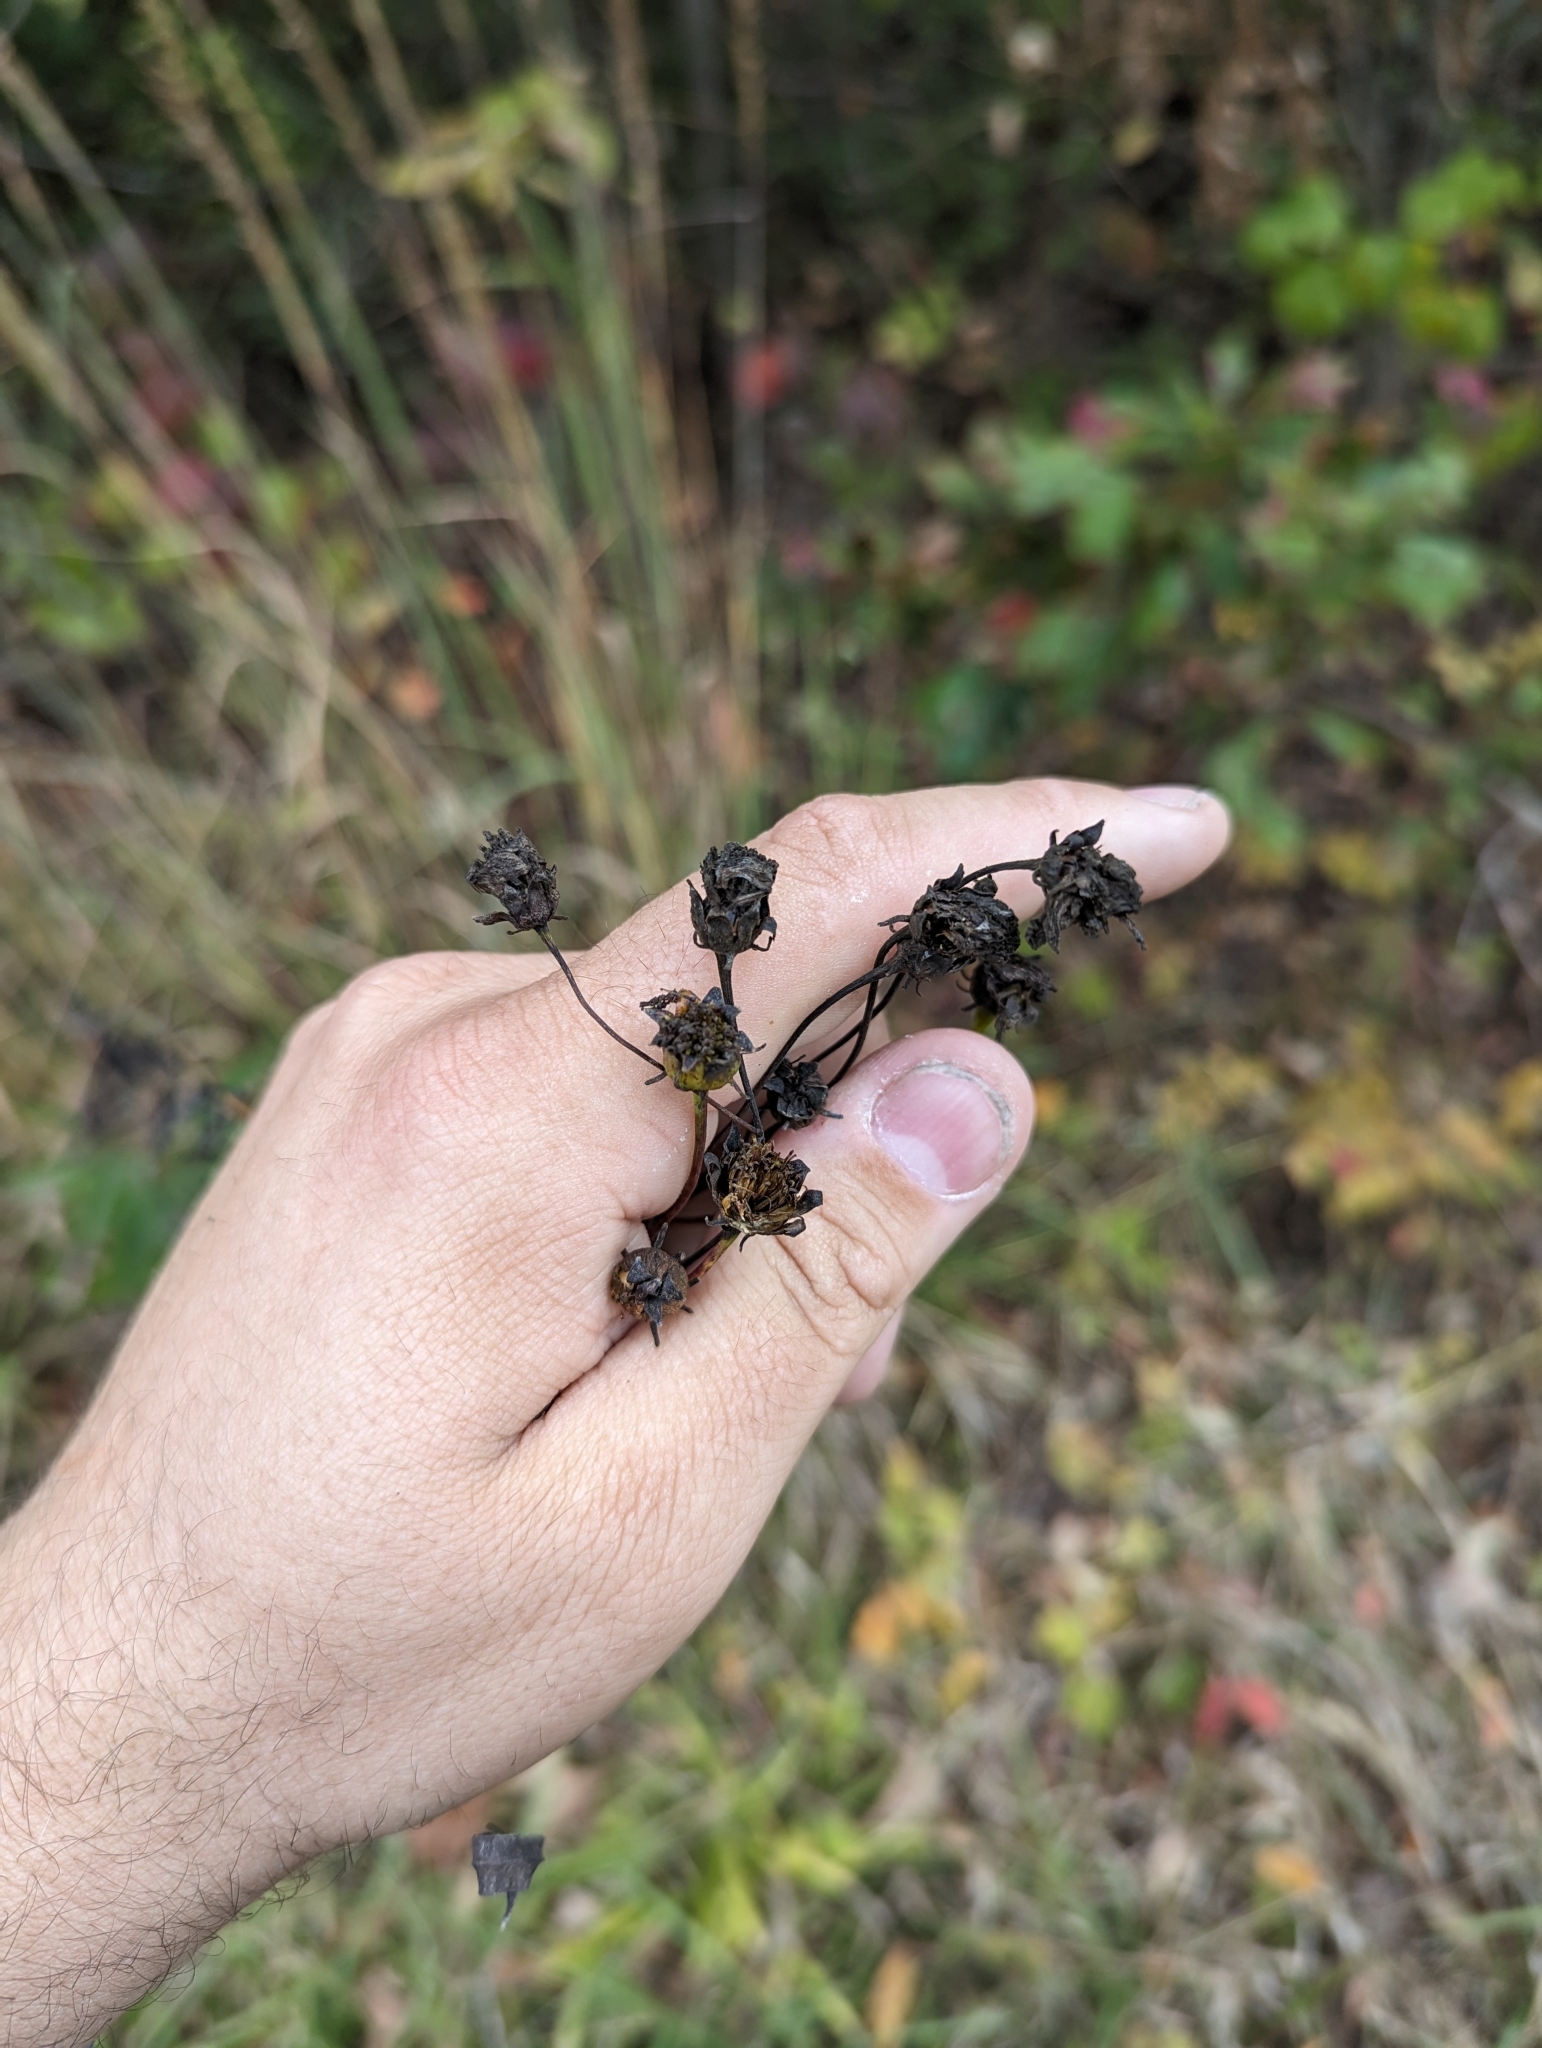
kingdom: Plantae
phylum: Tracheophyta
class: Magnoliopsida
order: Asterales
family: Asteraceae
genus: Coreopsis
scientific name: Coreopsis tripteris
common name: Tall coreopsis
